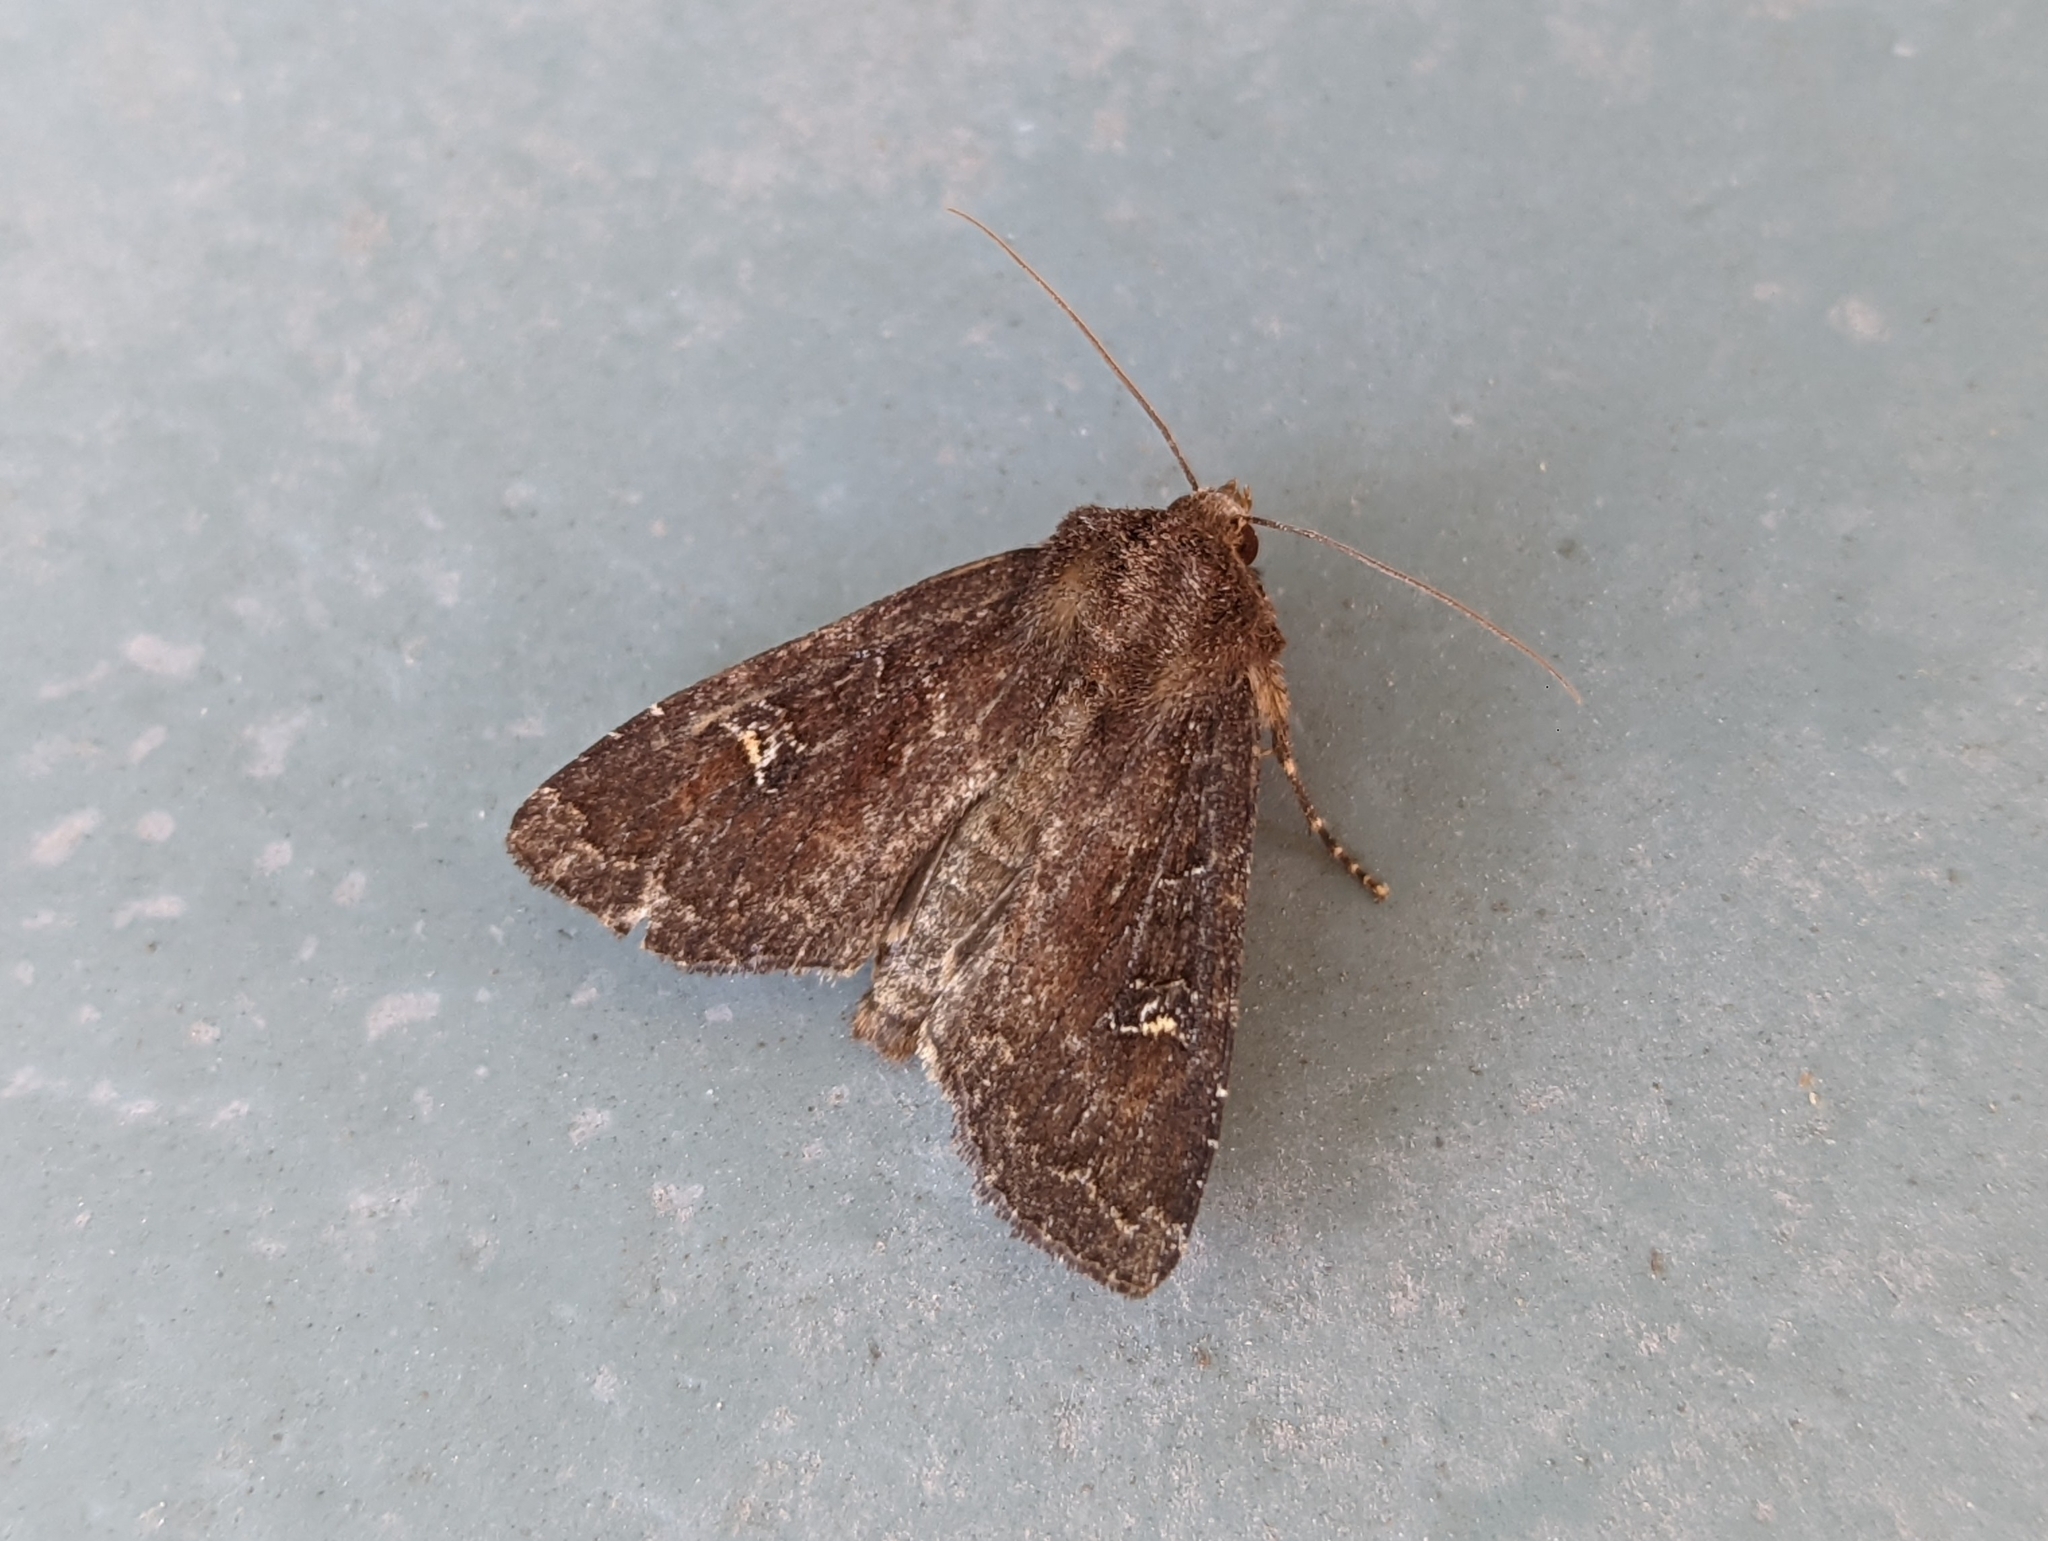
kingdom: Animalia
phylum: Arthropoda
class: Insecta
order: Lepidoptera
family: Noctuidae
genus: Apamea
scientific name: Apamea cogitata
